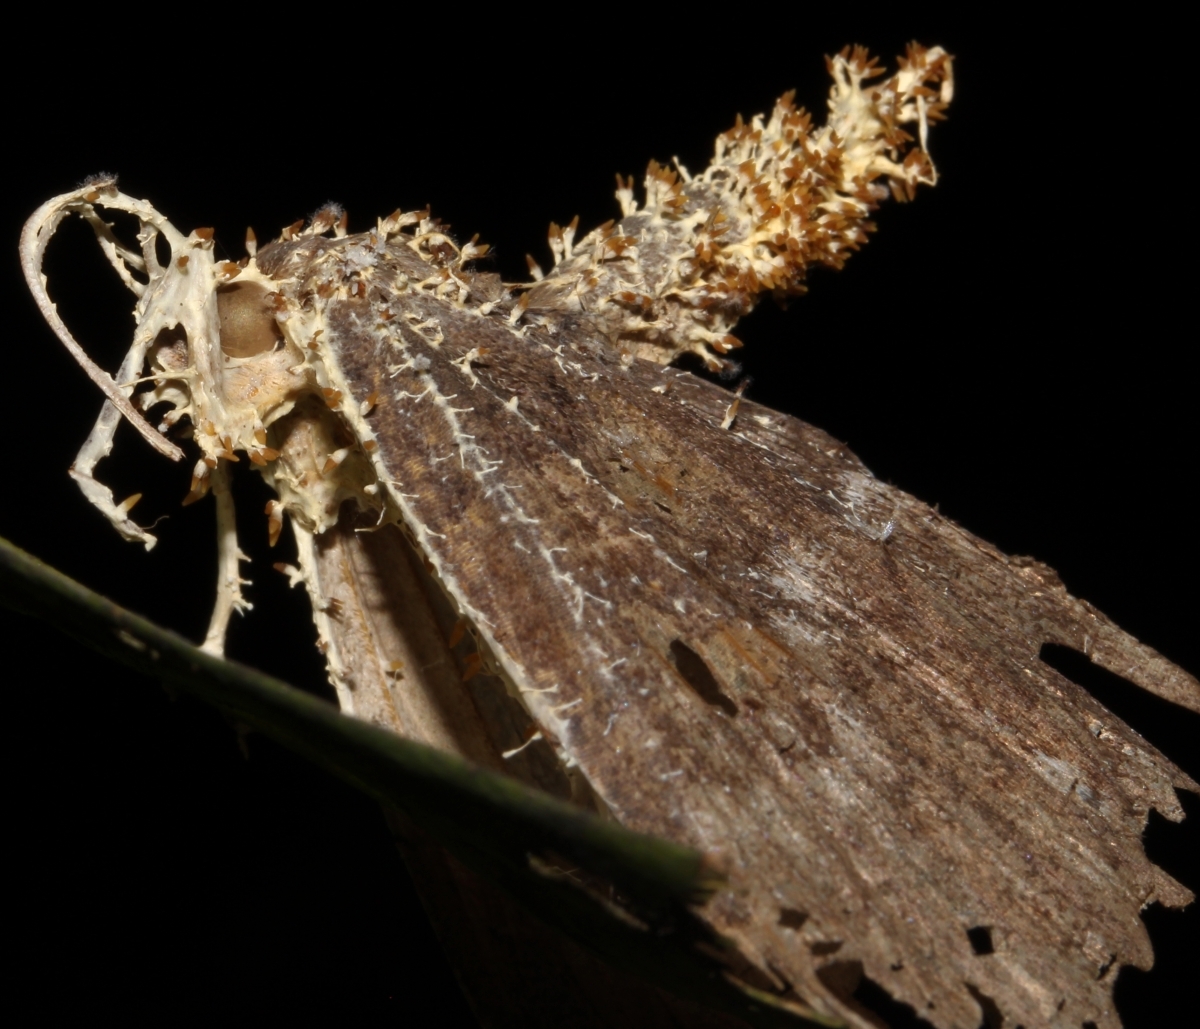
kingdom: Fungi
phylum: Ascomycota
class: Sordariomycetes
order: Hypocreales
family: Cordycipitaceae
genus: Akanthomyces
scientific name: Akanthomyces
